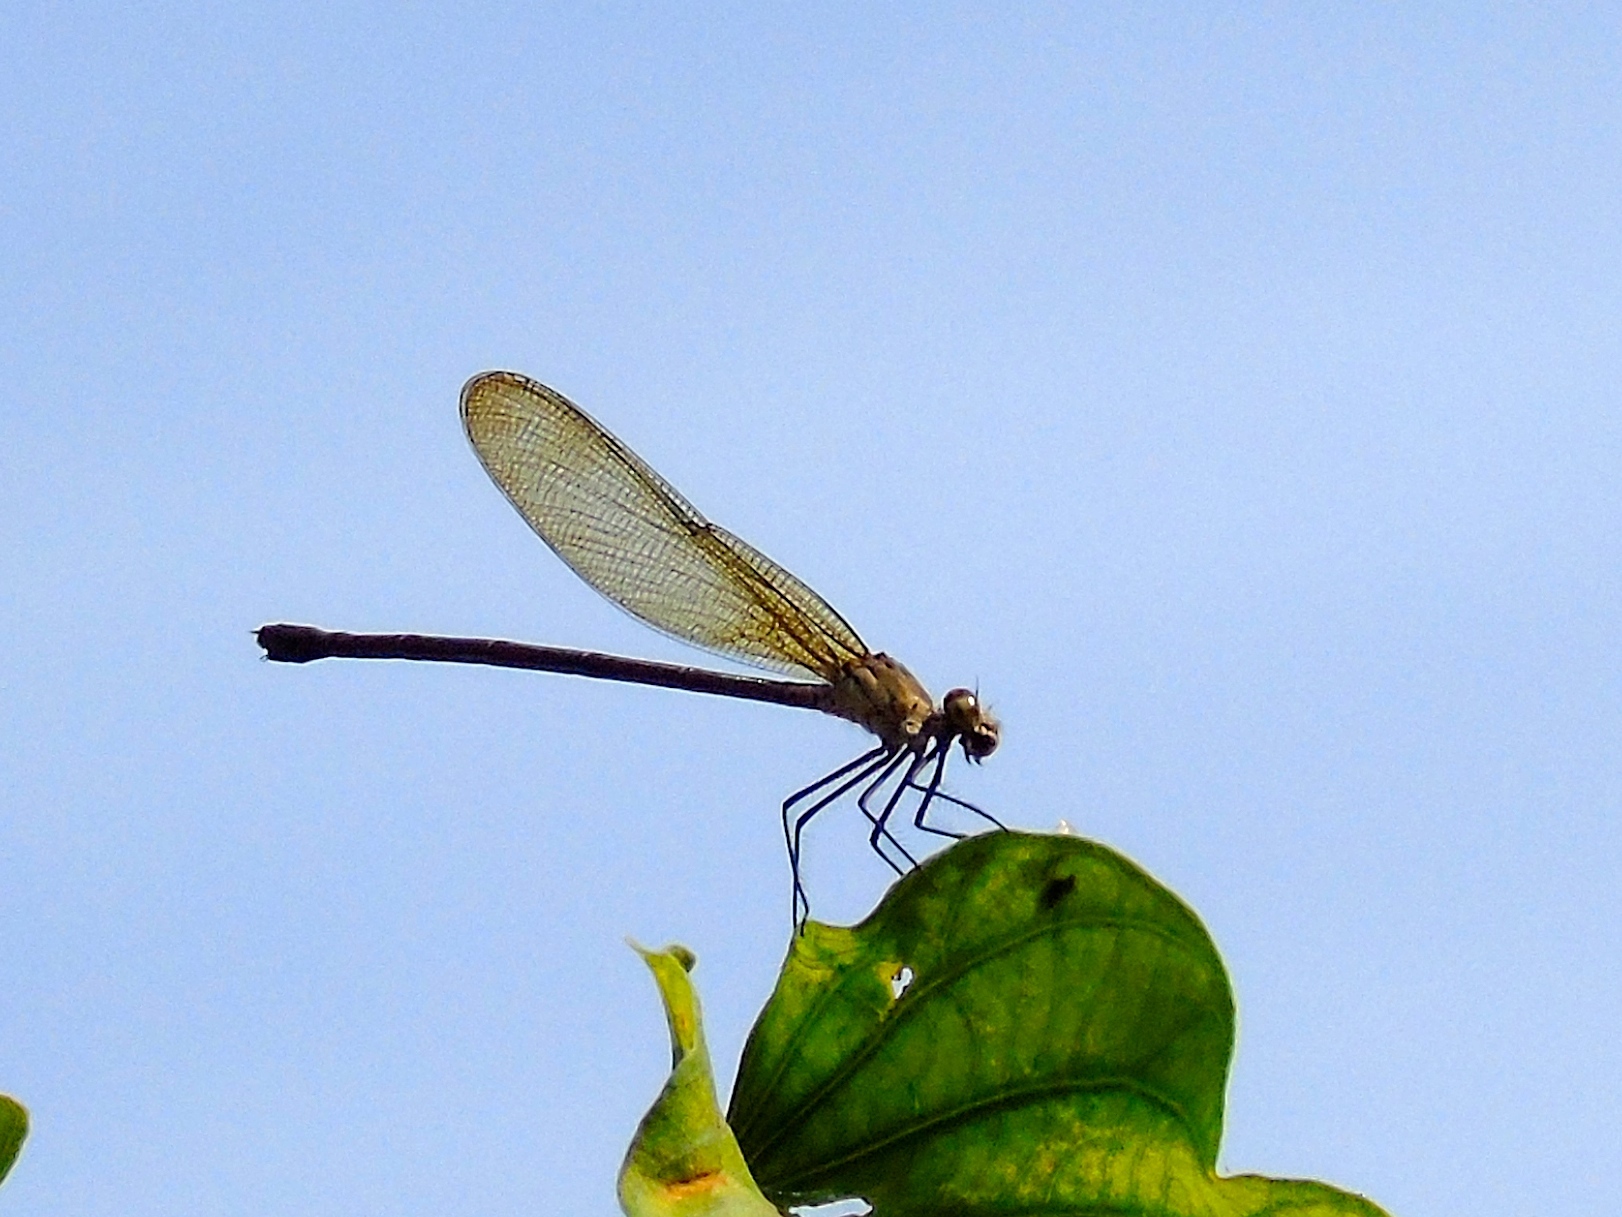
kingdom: Animalia
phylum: Arthropoda
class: Insecta
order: Odonata
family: Calopterygidae
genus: Hetaerina
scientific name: Hetaerina
